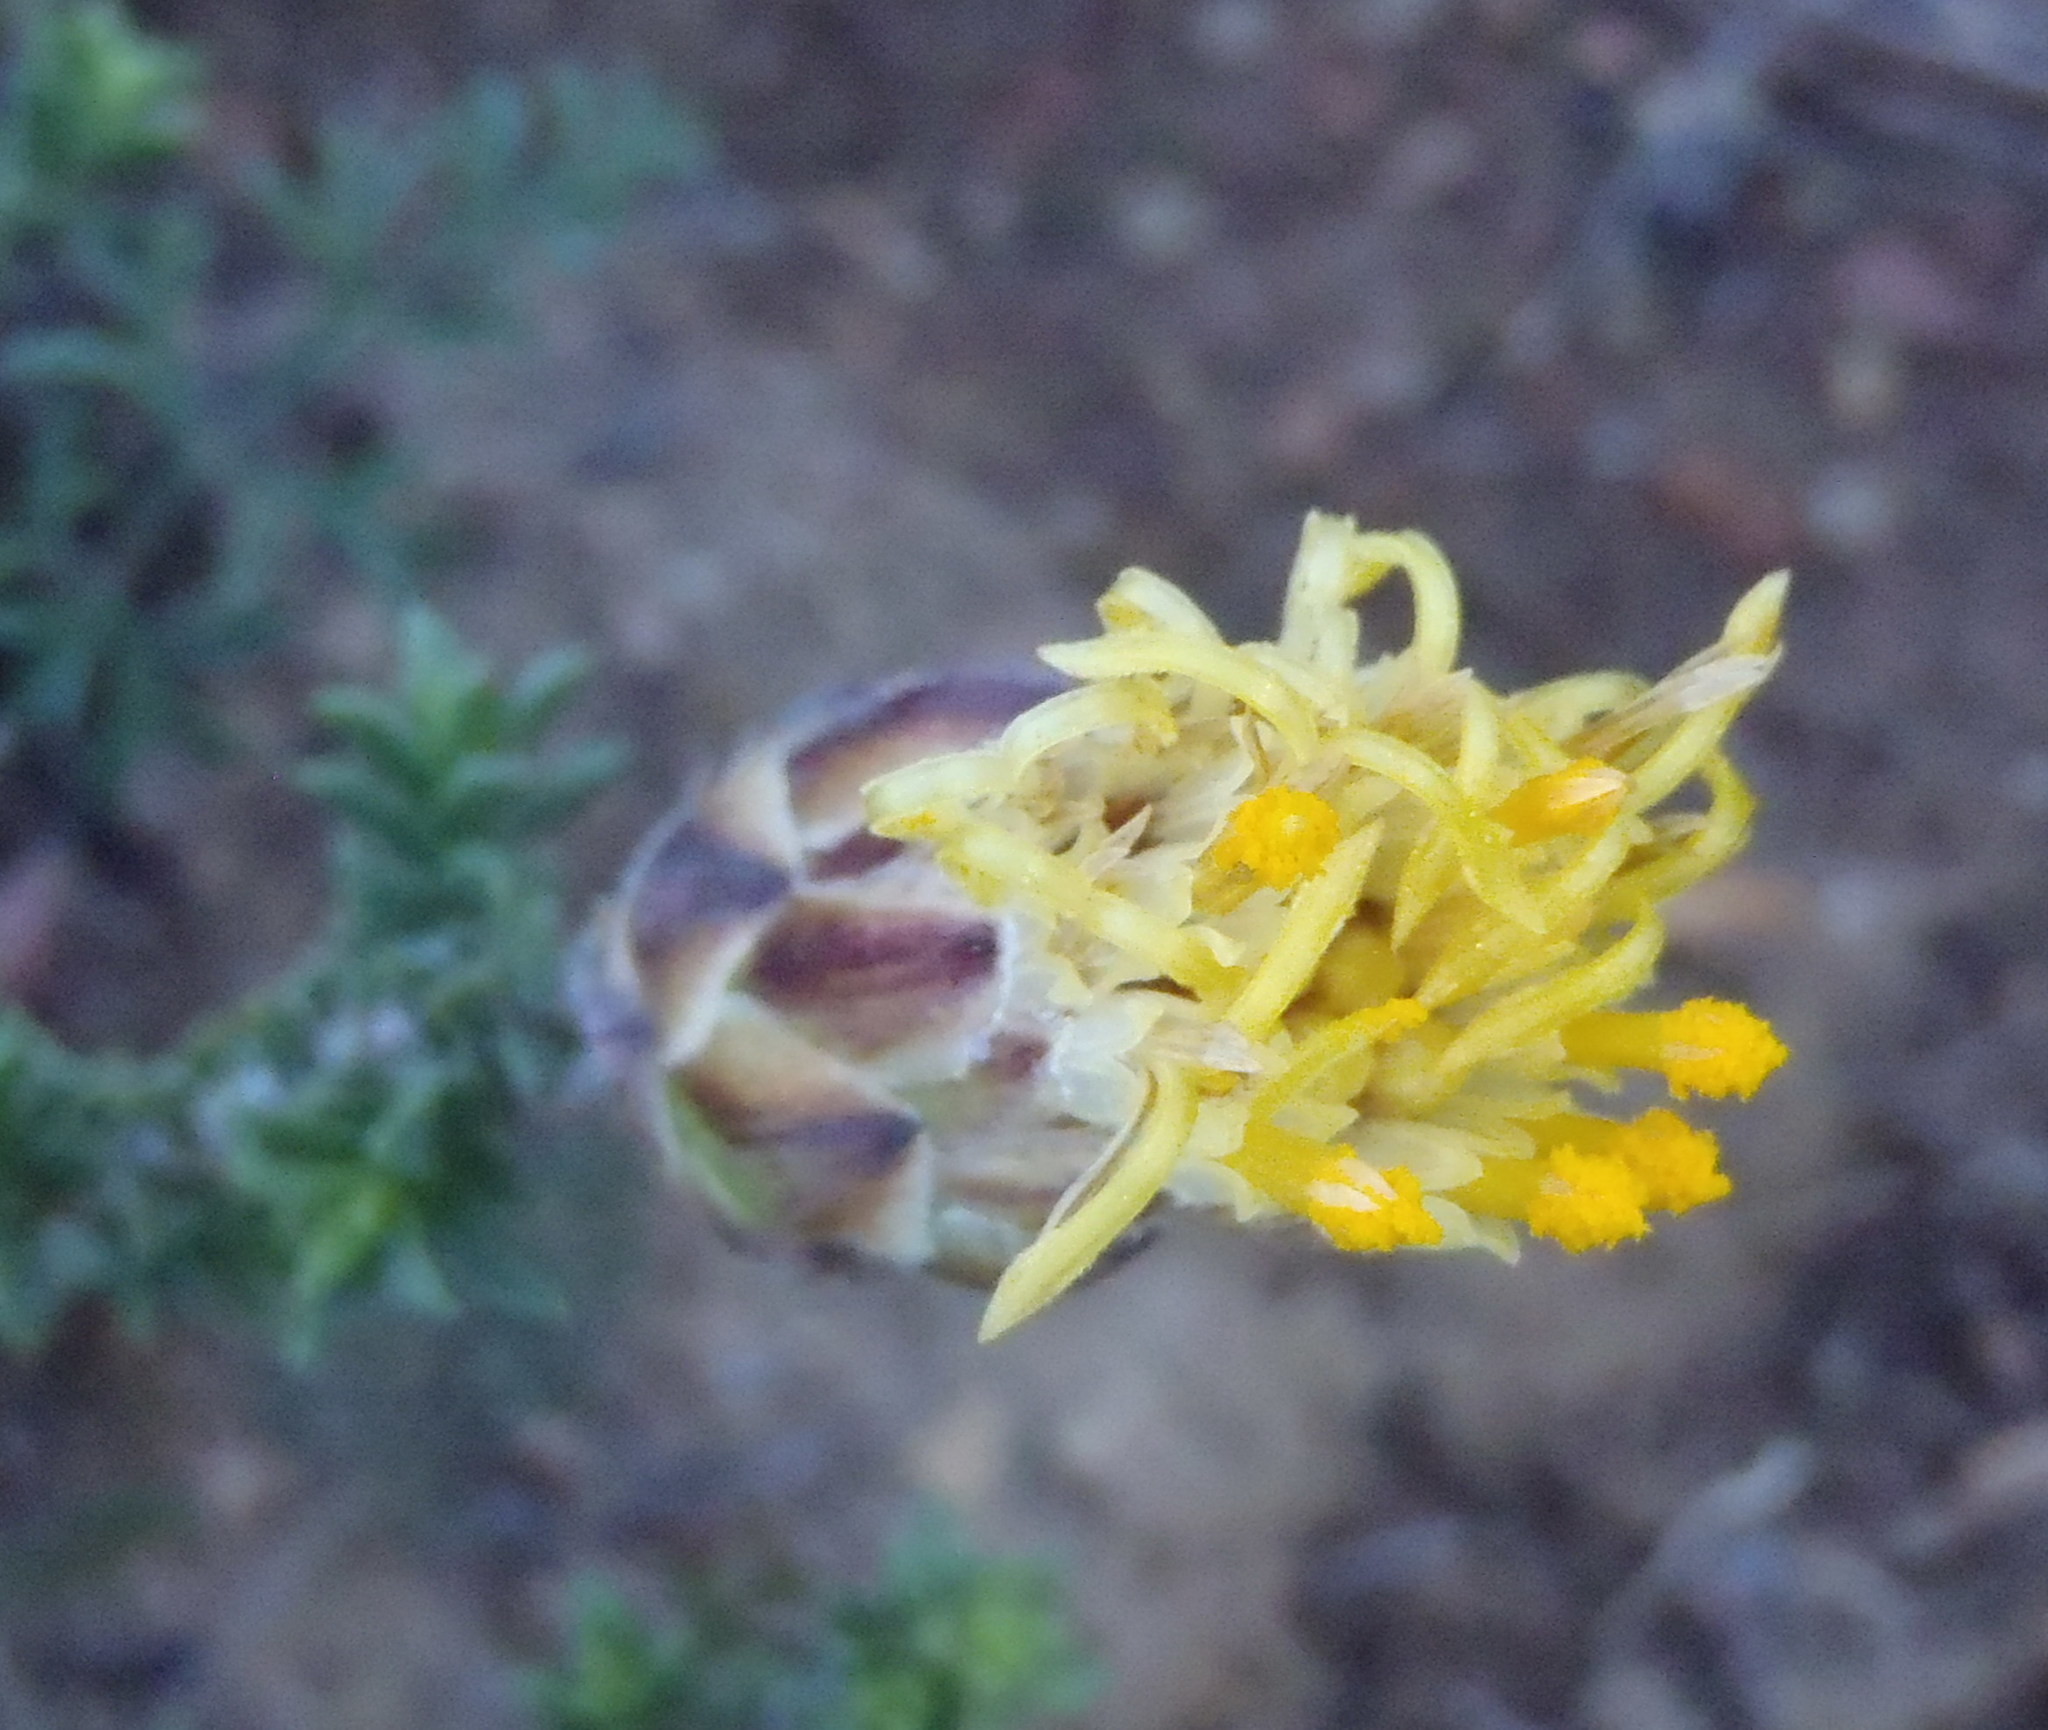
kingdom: Plantae
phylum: Tracheophyta
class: Magnoliopsida
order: Asterales
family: Asteraceae
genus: Pteronia
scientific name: Pteronia hutchinsoniana
